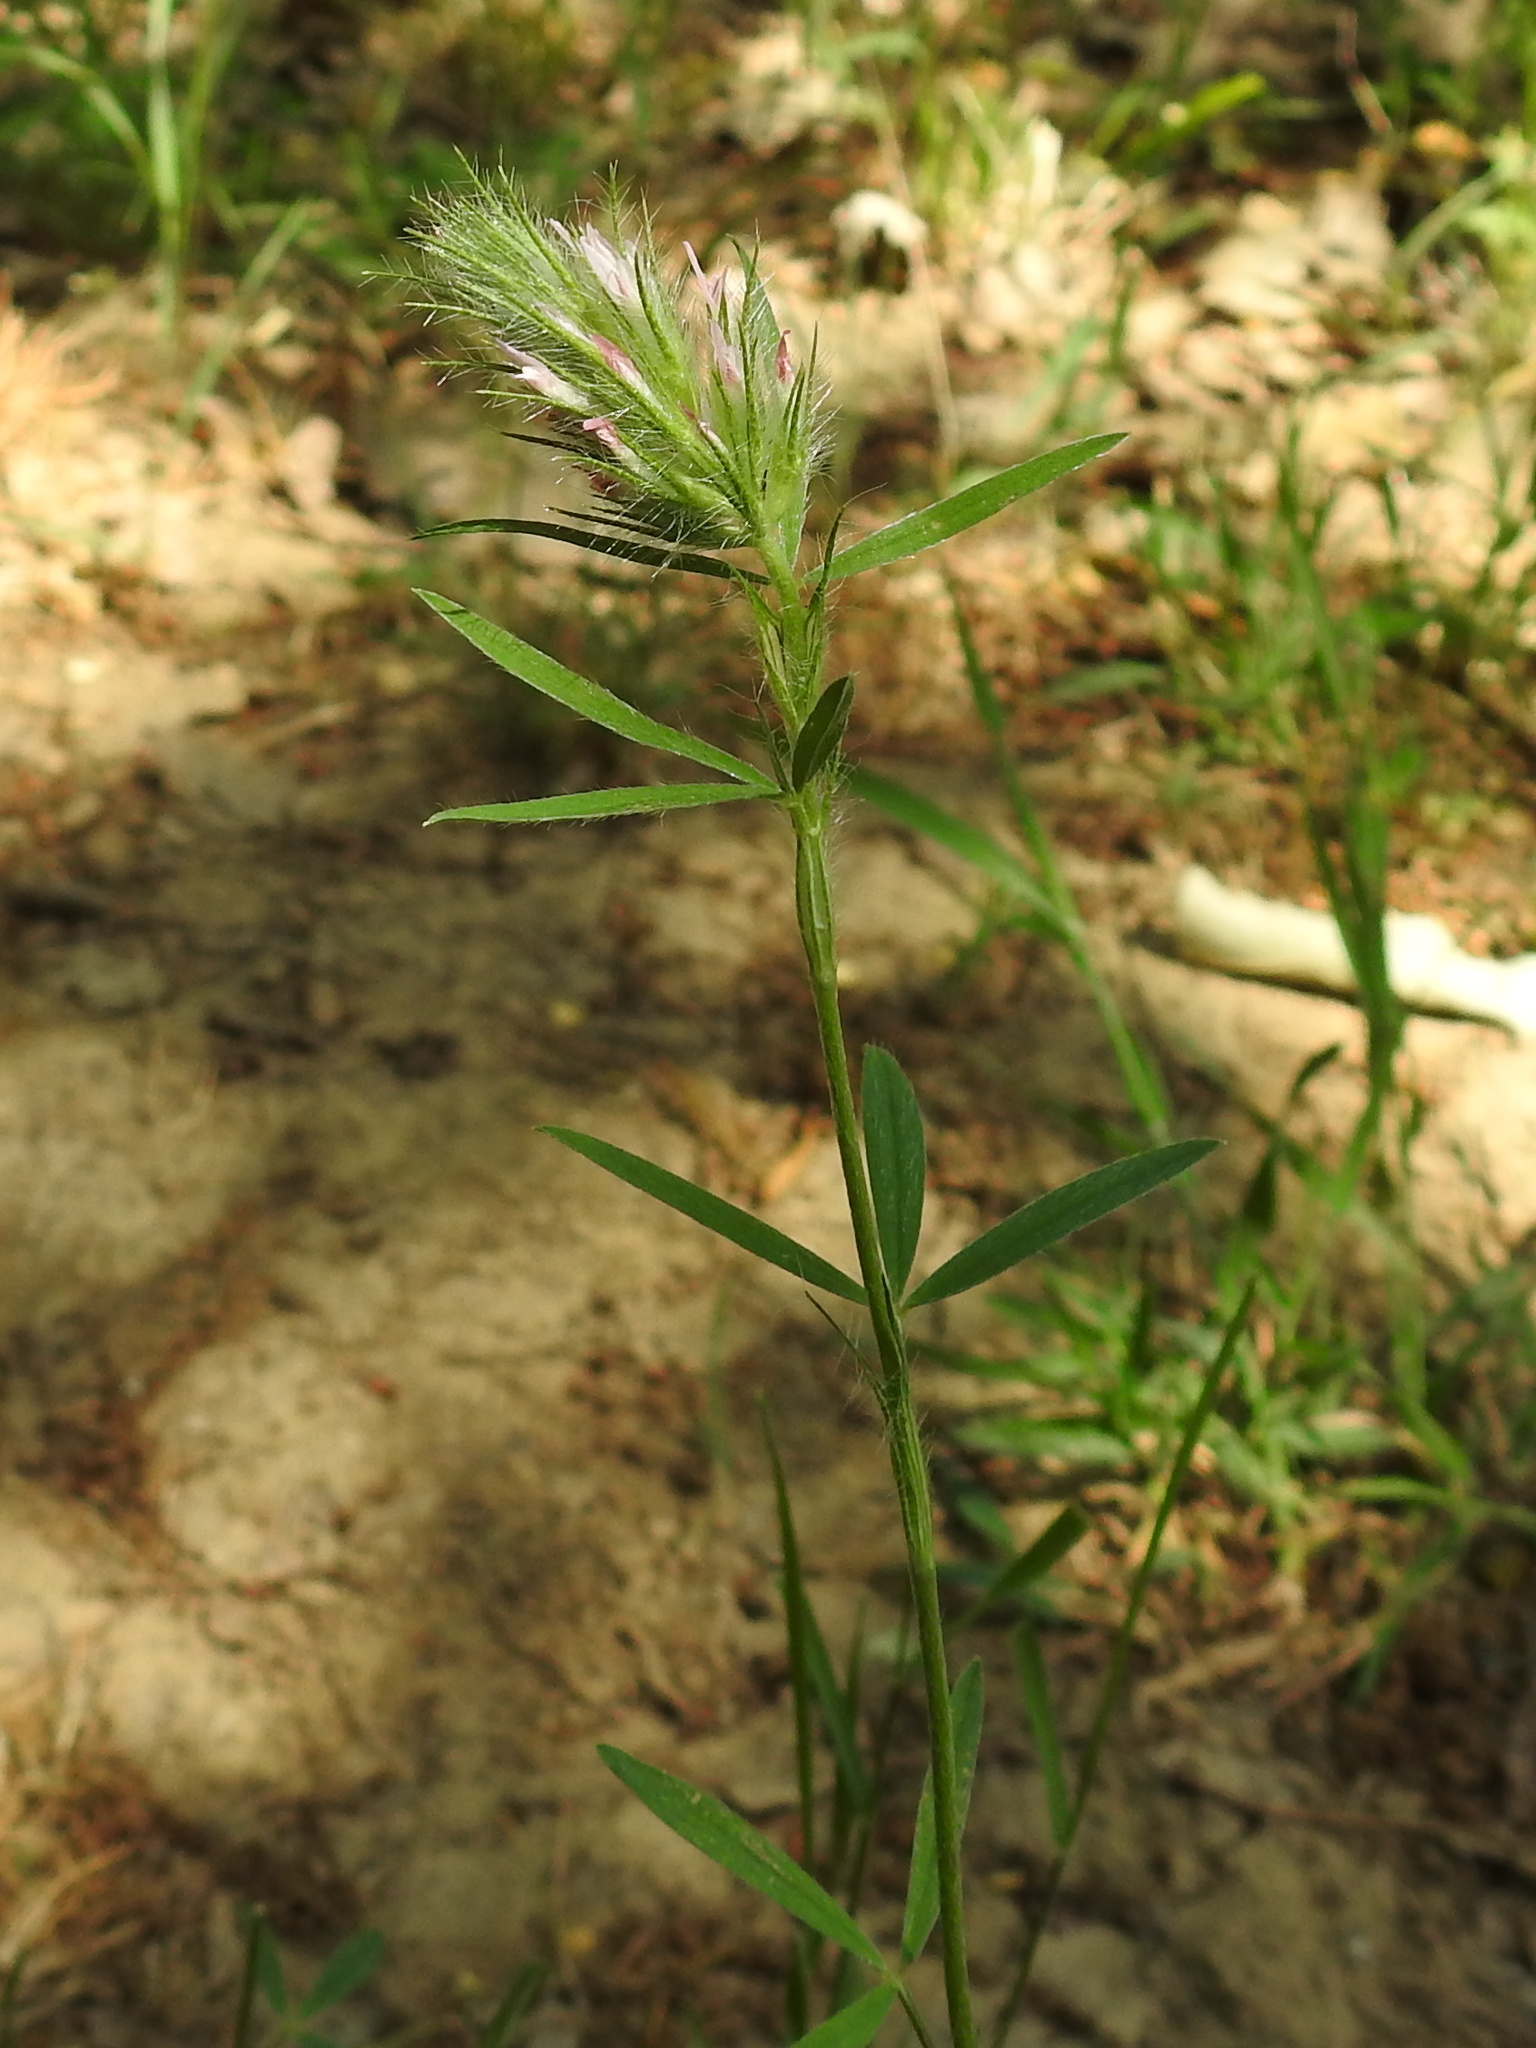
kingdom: Plantae
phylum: Tracheophyta
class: Magnoliopsida
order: Fabales
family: Fabaceae
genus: Trifolium
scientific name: Trifolium angustifolium
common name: Narrow clover
